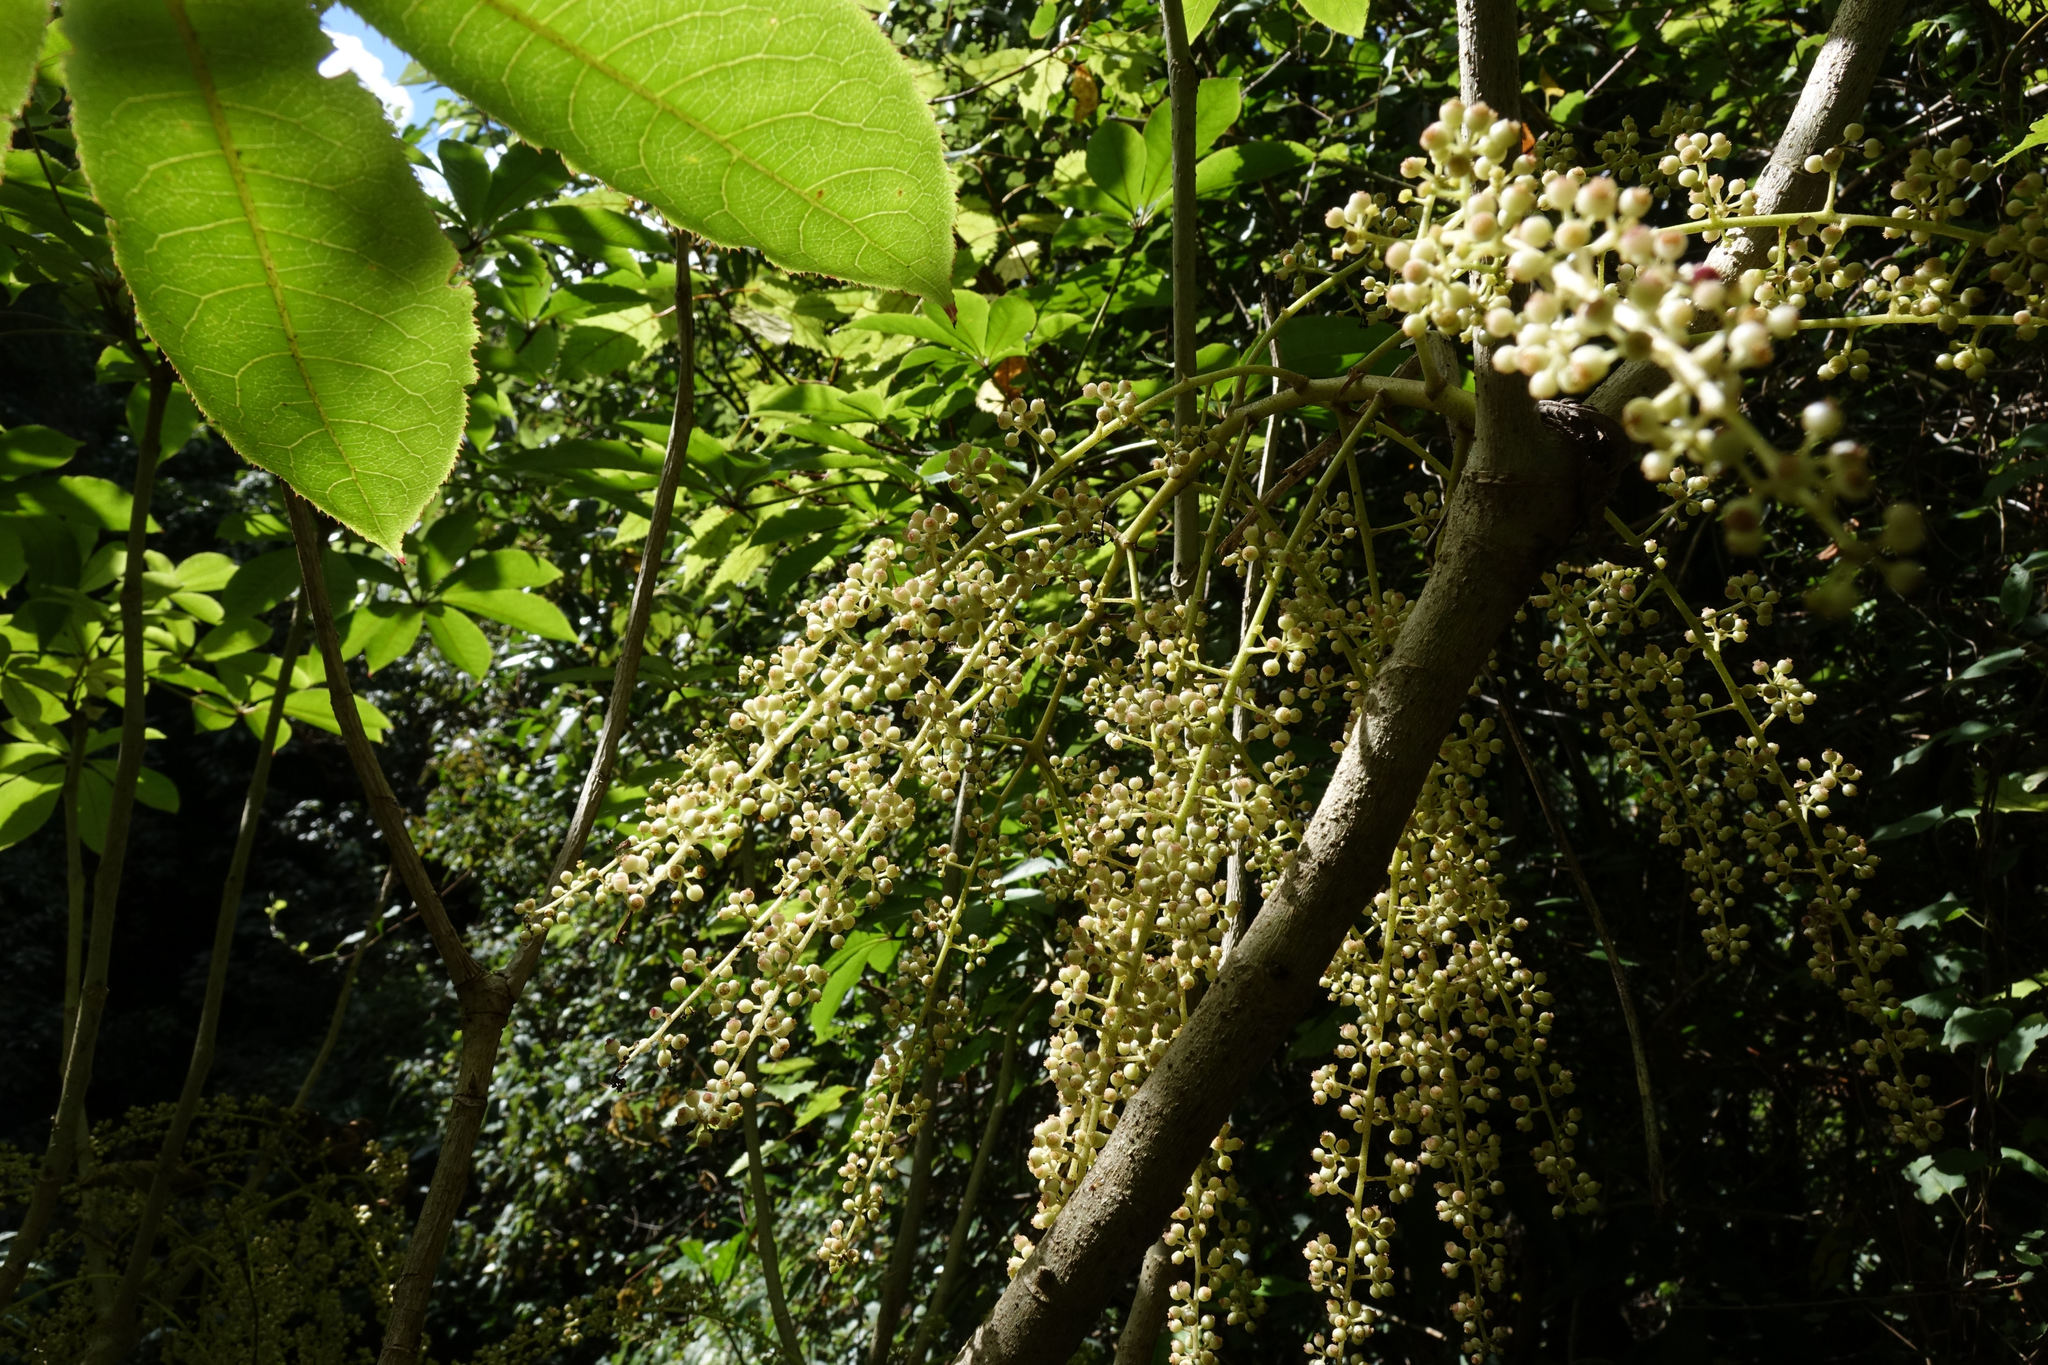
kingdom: Plantae
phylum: Tracheophyta
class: Magnoliopsida
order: Apiales
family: Araliaceae
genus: Schefflera
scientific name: Schefflera digitata
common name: Pate
